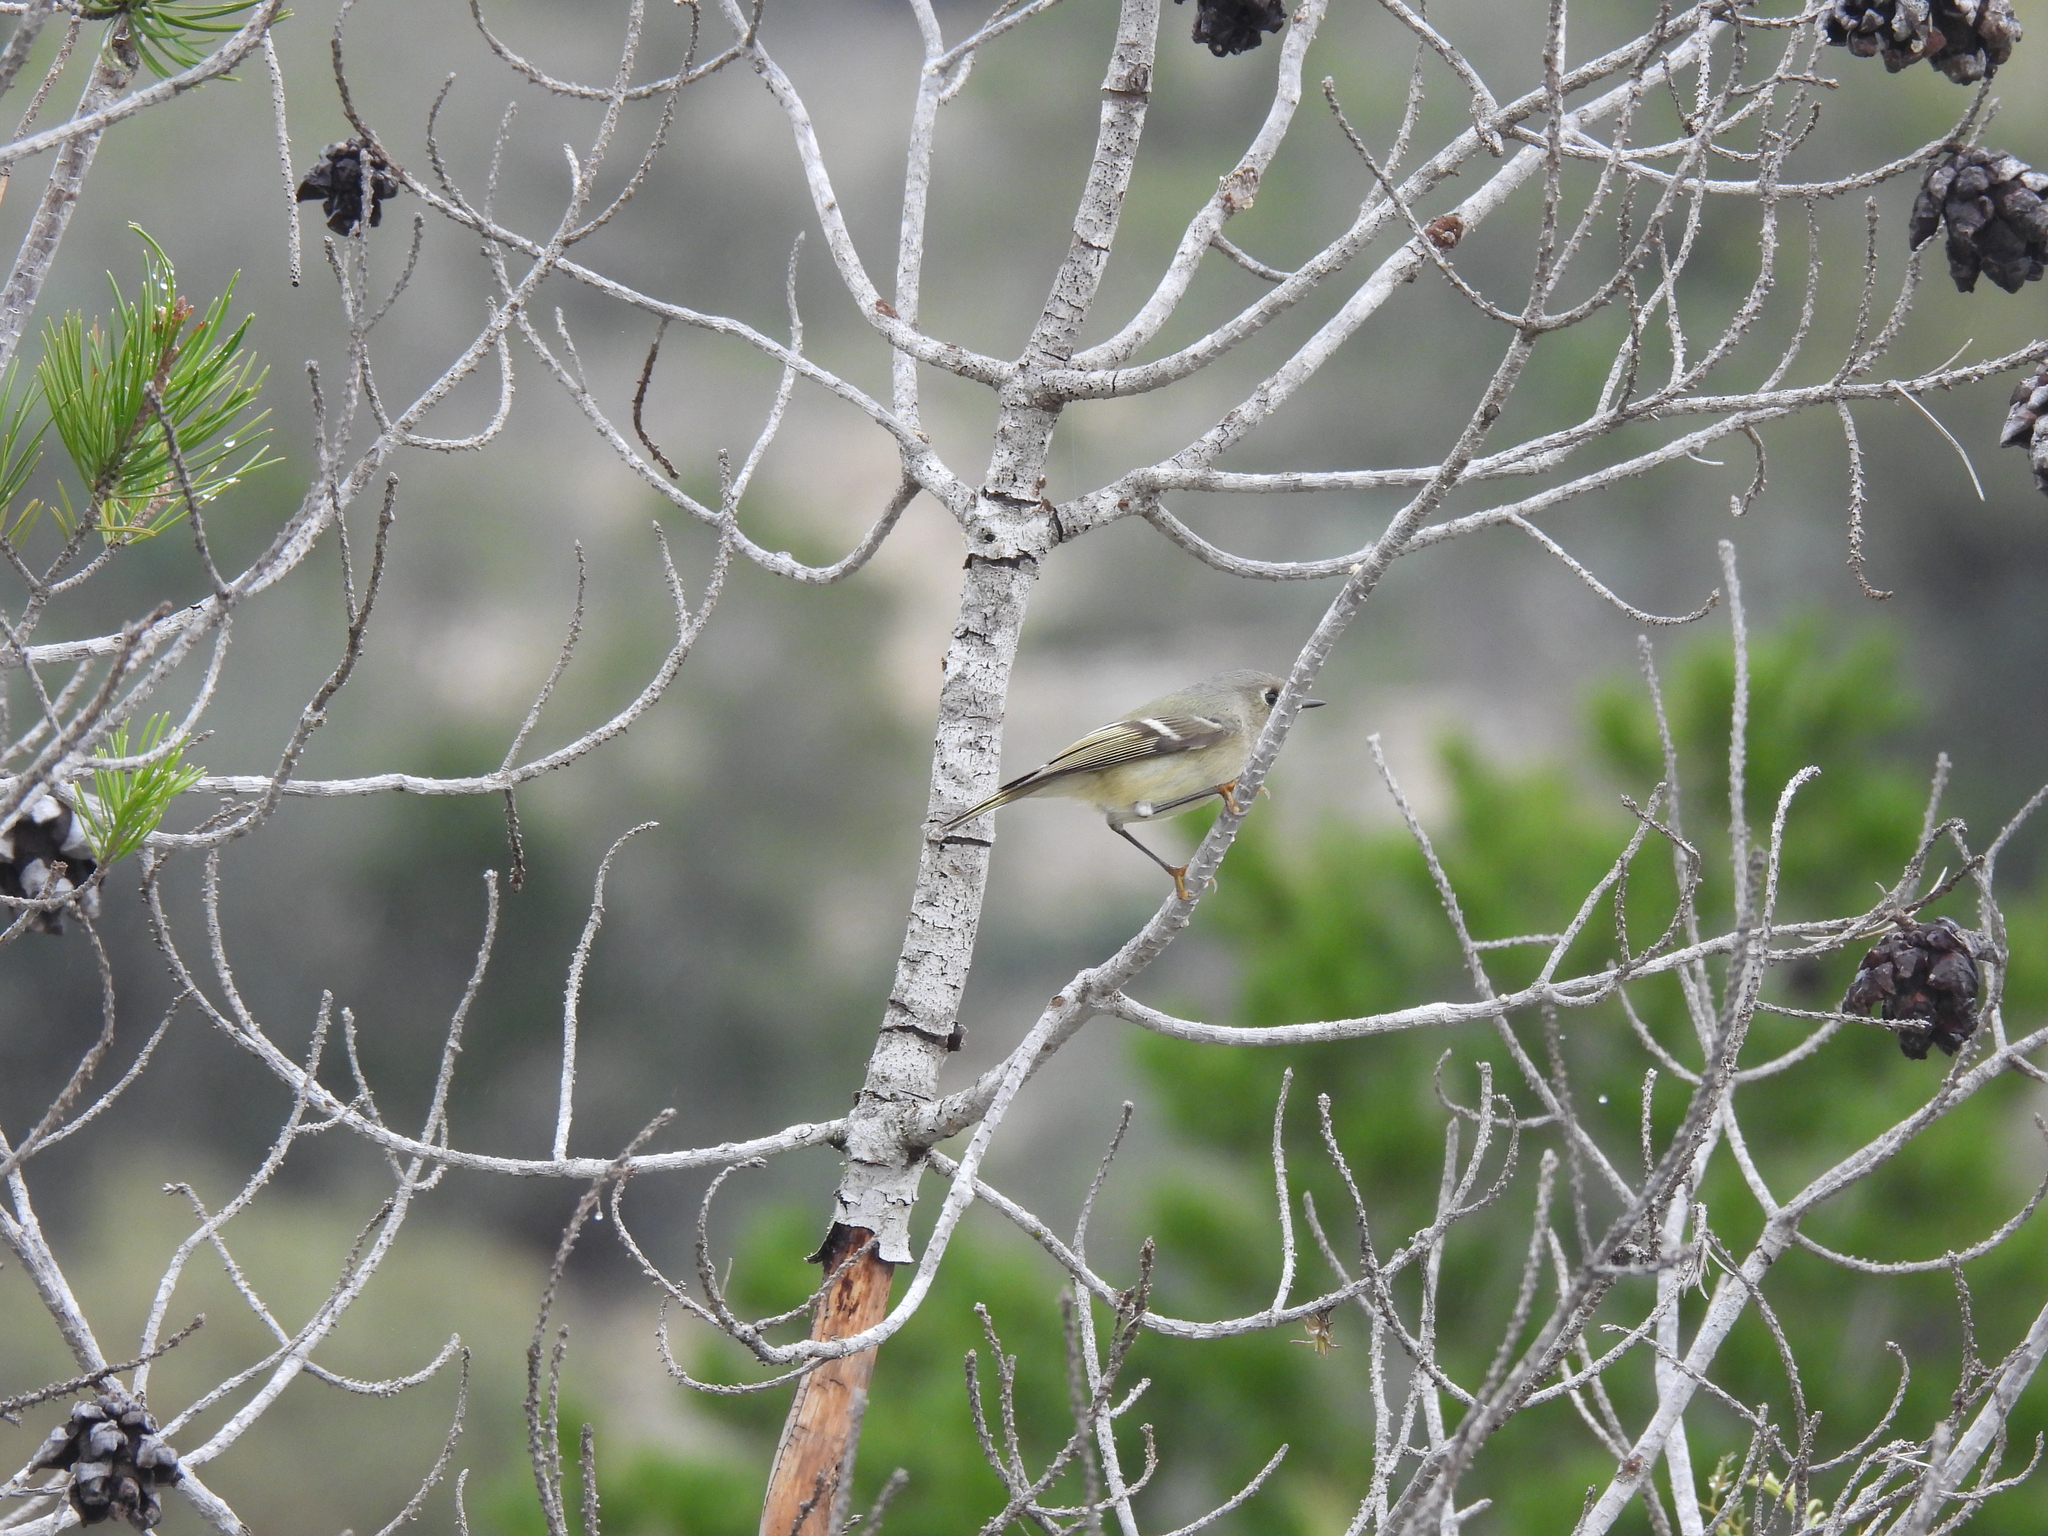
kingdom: Animalia
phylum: Chordata
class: Aves
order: Passeriformes
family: Regulidae
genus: Regulus
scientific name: Regulus calendula
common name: Ruby-crowned kinglet
